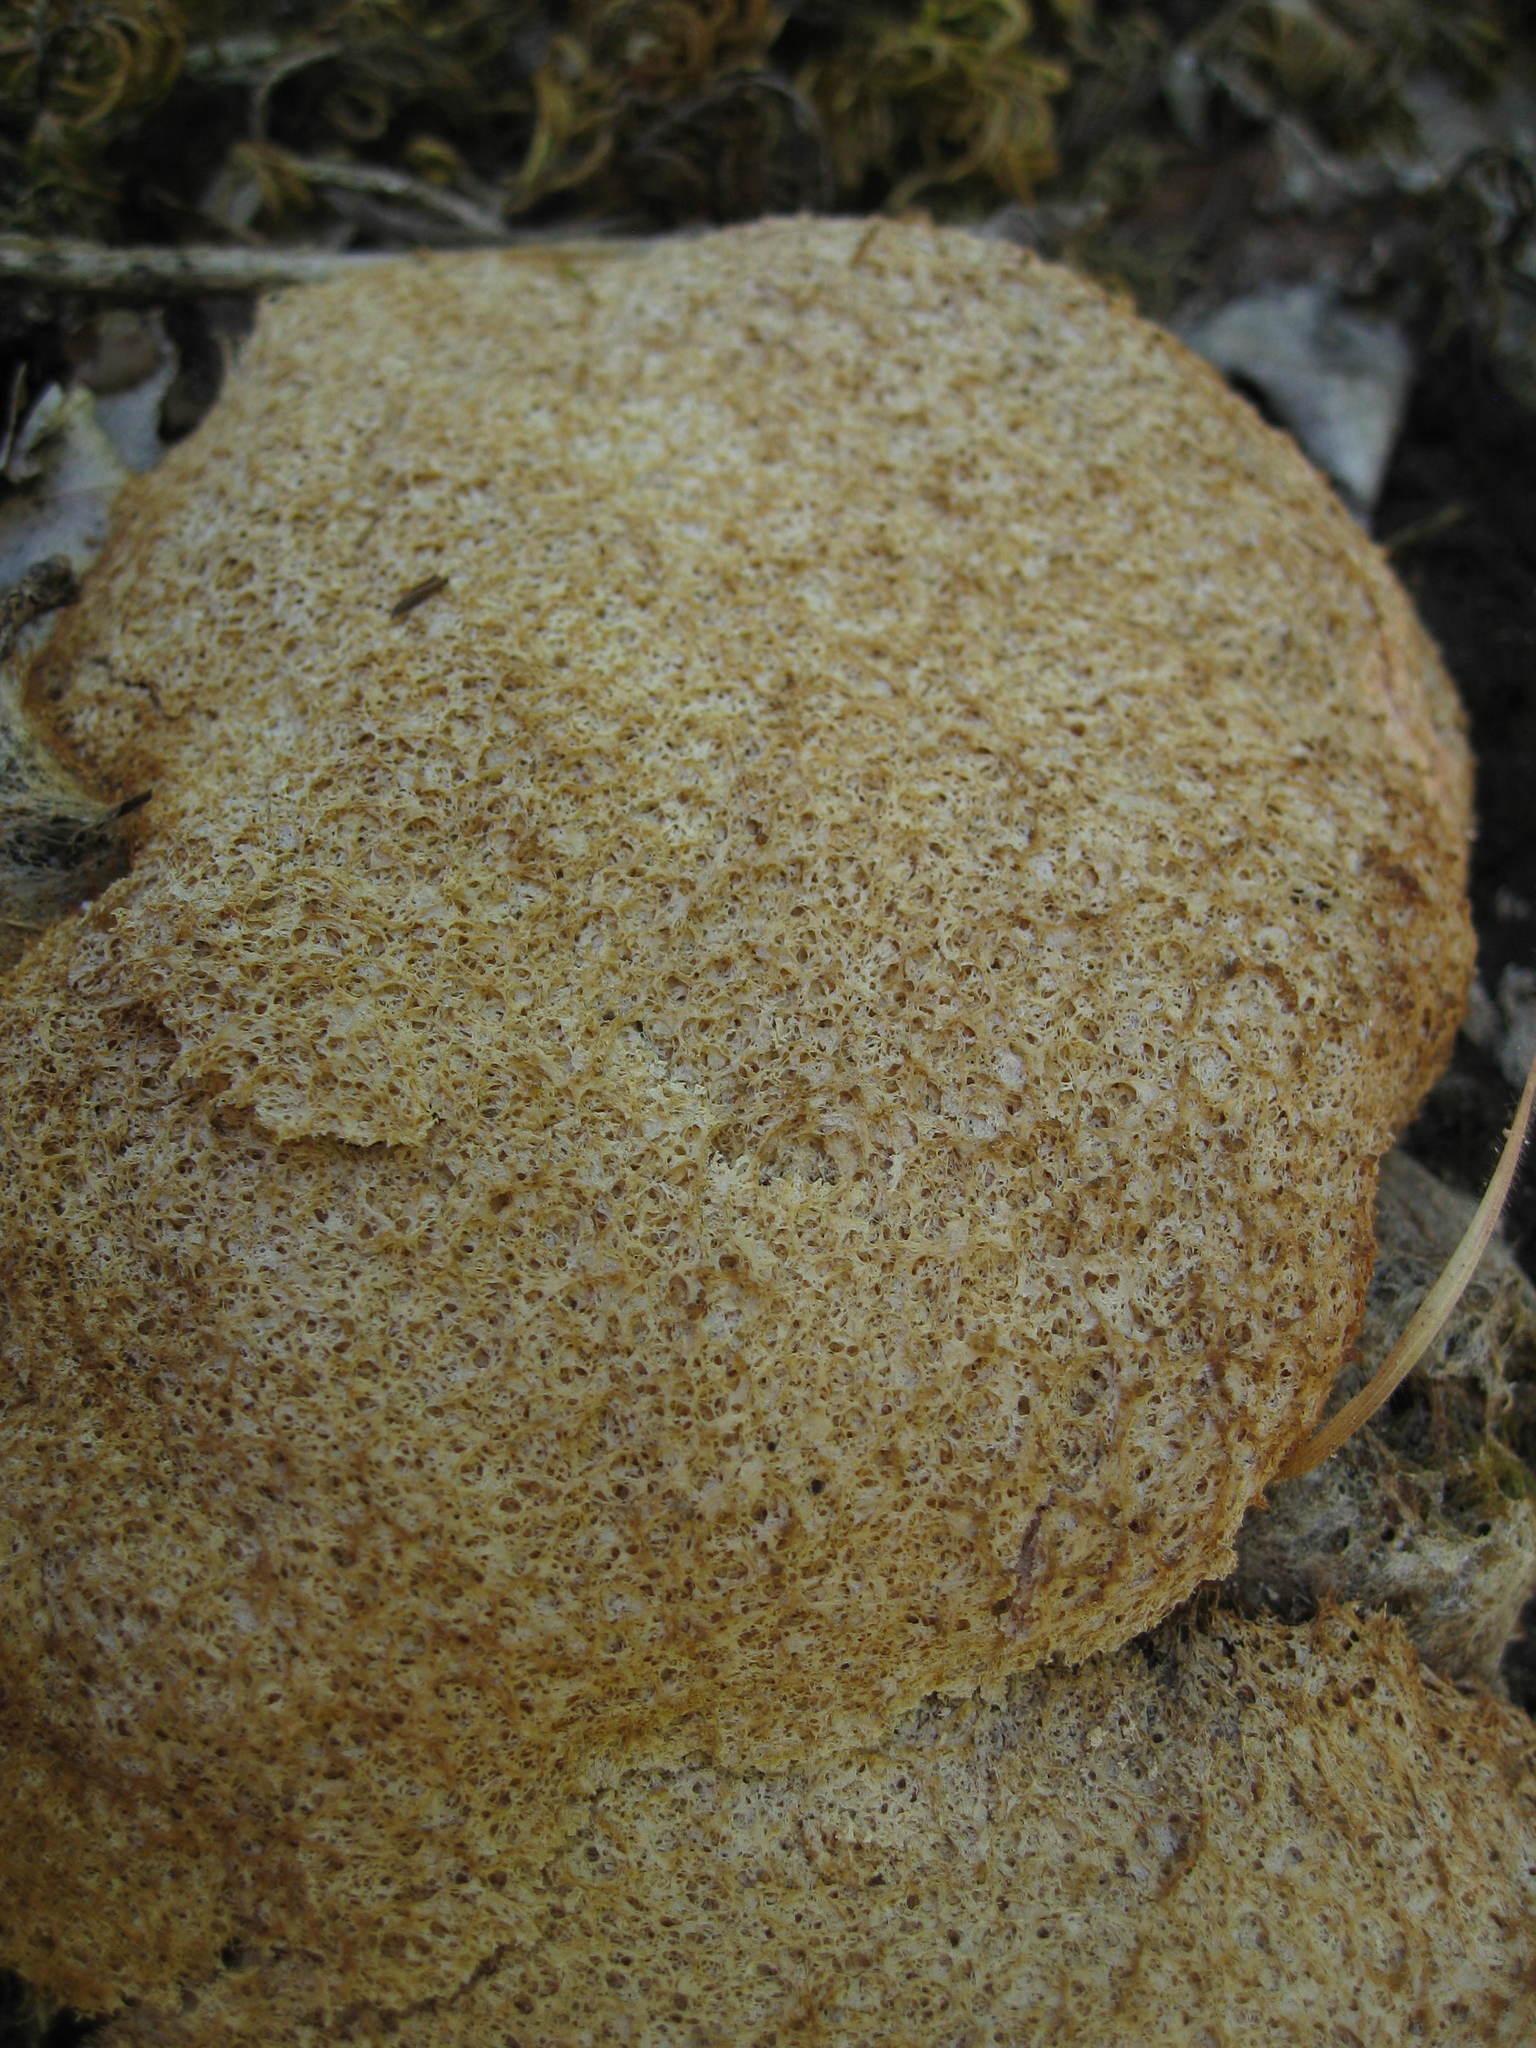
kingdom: Protozoa
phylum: Mycetozoa
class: Myxomycetes
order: Physarales
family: Physaraceae
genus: Fuligo
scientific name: Fuligo septica
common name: Dog vomit slime mold
